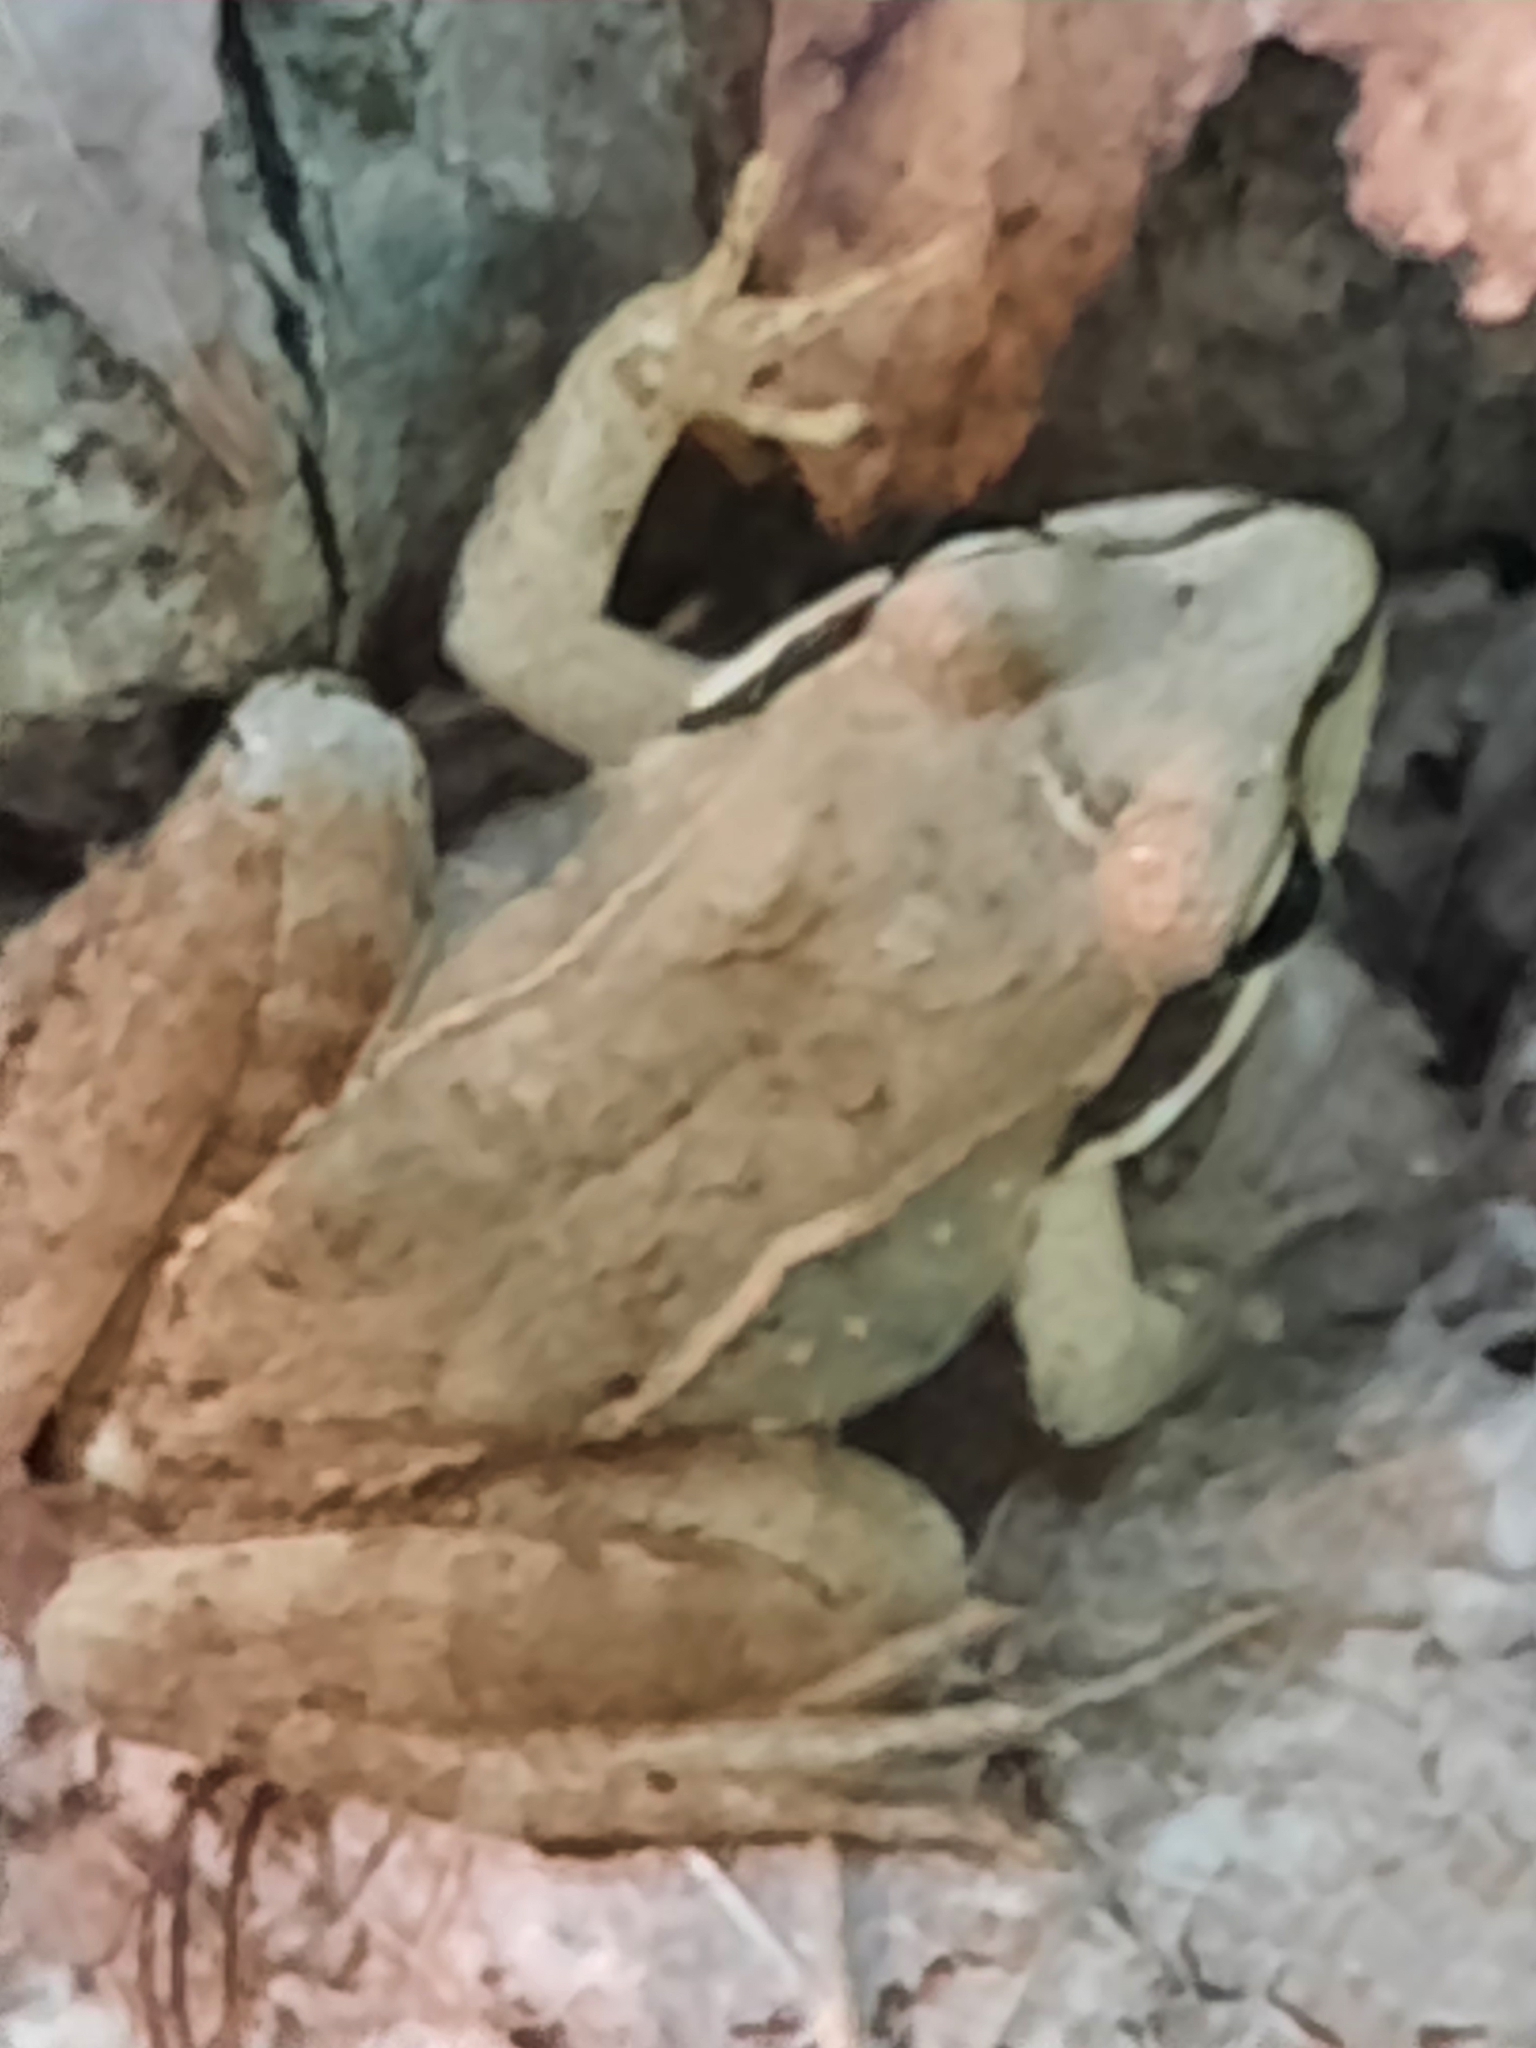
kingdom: Animalia
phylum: Chordata
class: Amphibia
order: Anura
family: Ranidae
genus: Lithobates
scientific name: Lithobates sylvaticus
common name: Wood frog
